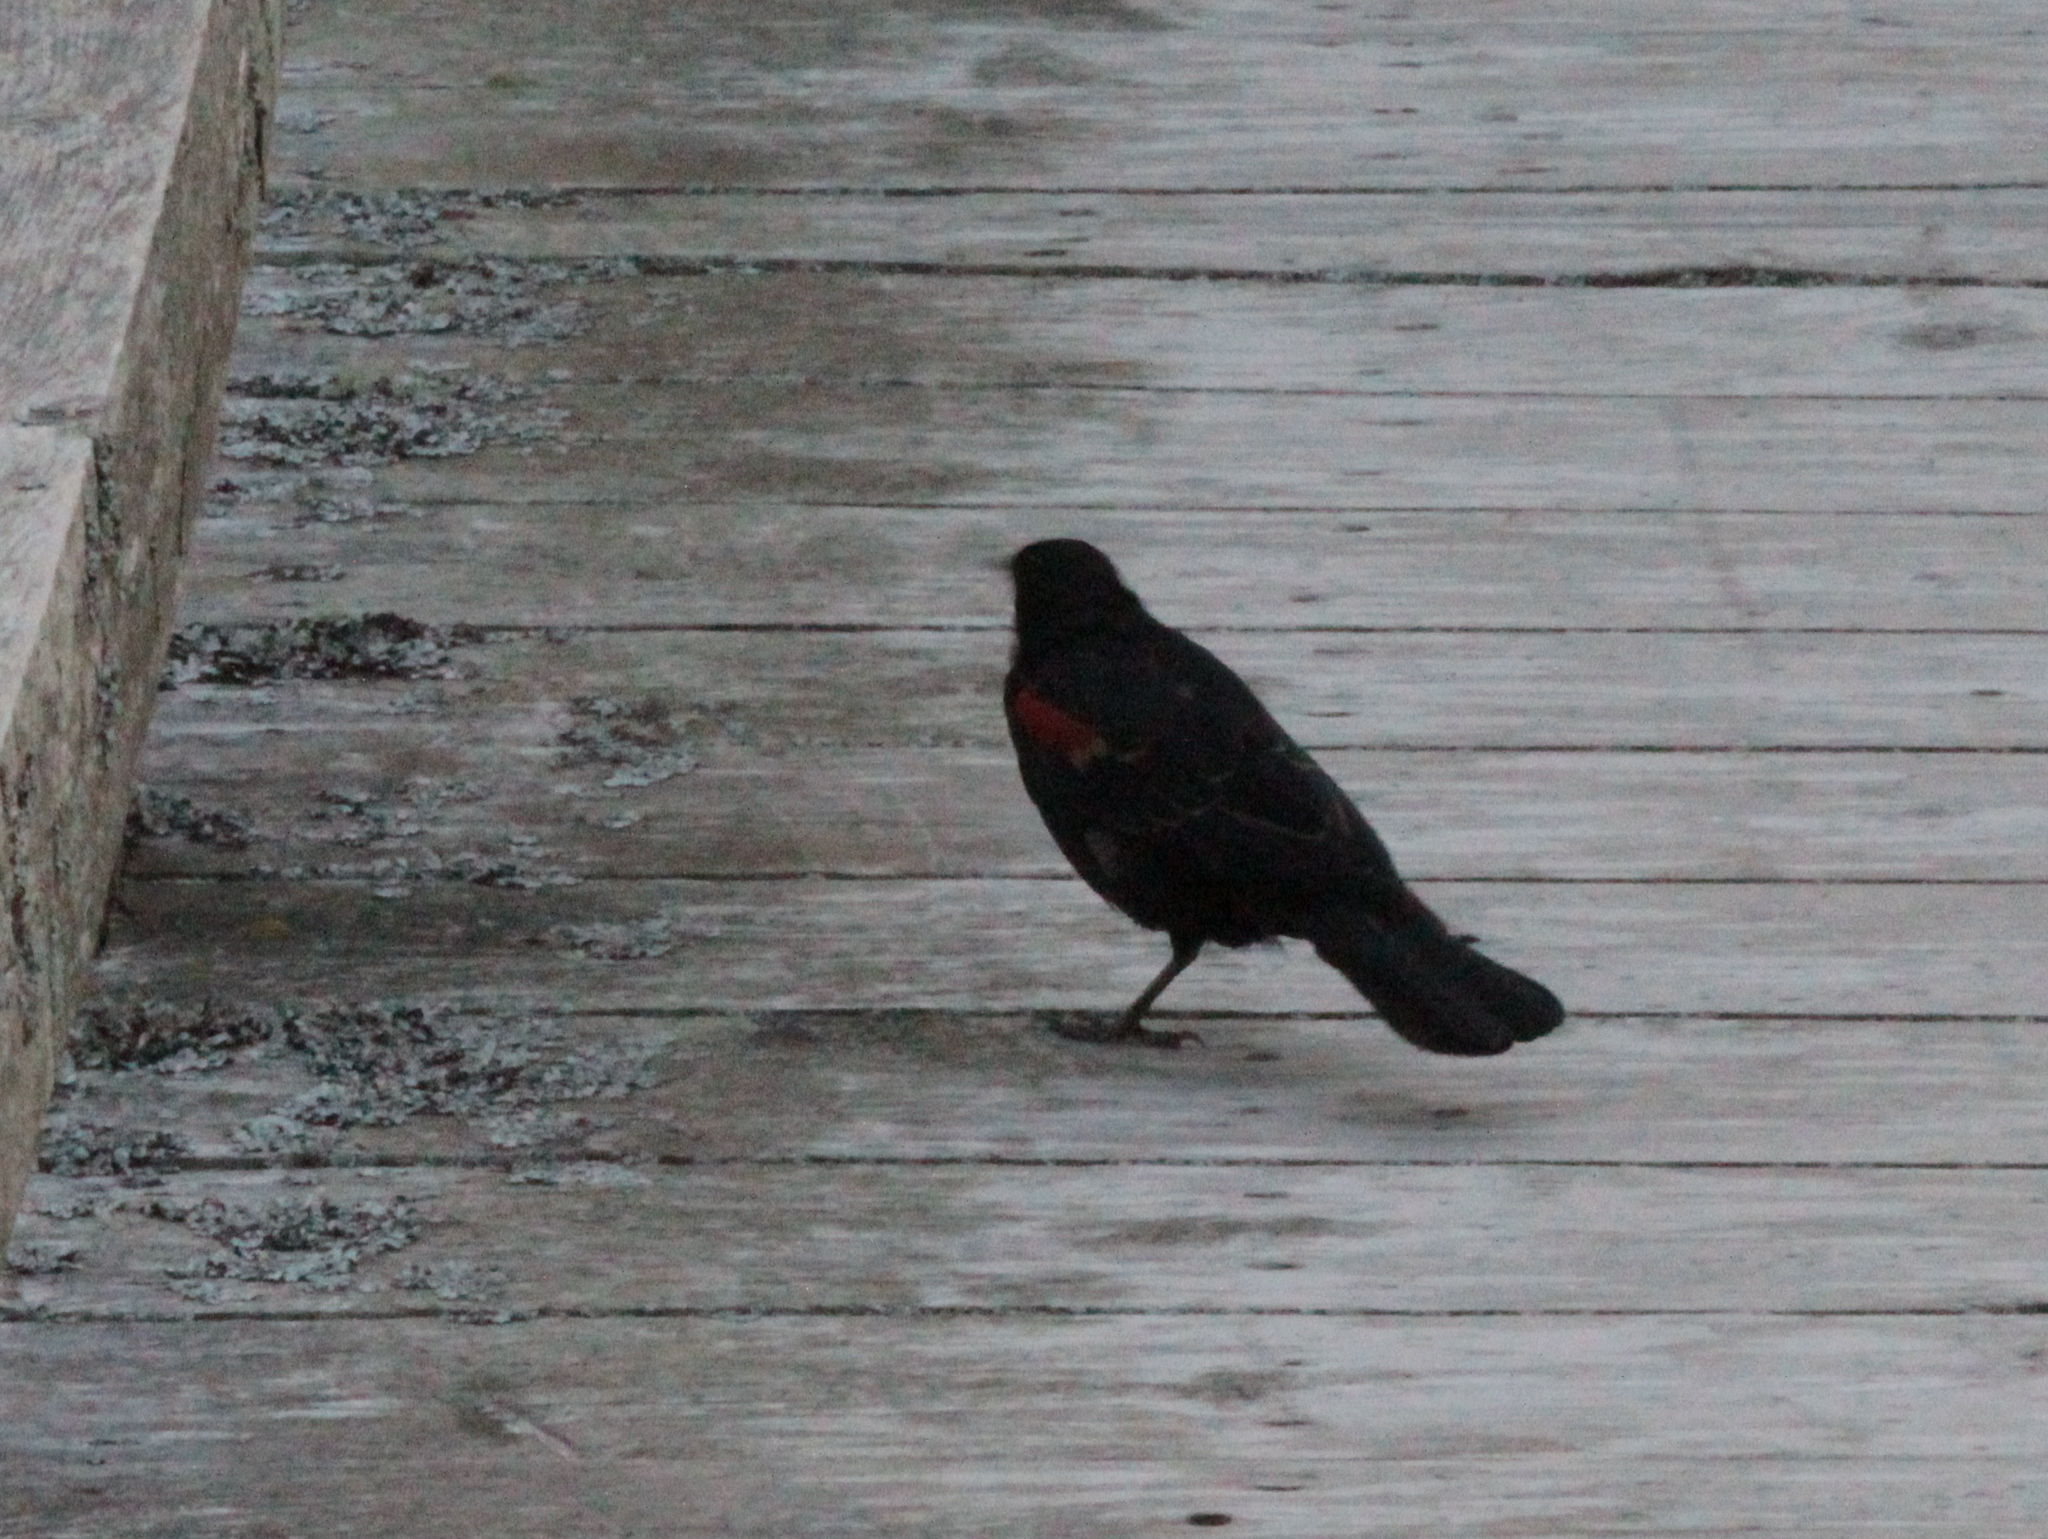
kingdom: Animalia
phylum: Chordata
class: Aves
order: Passeriformes
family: Icteridae
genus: Agelaius
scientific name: Agelaius phoeniceus
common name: Red-winged blackbird
